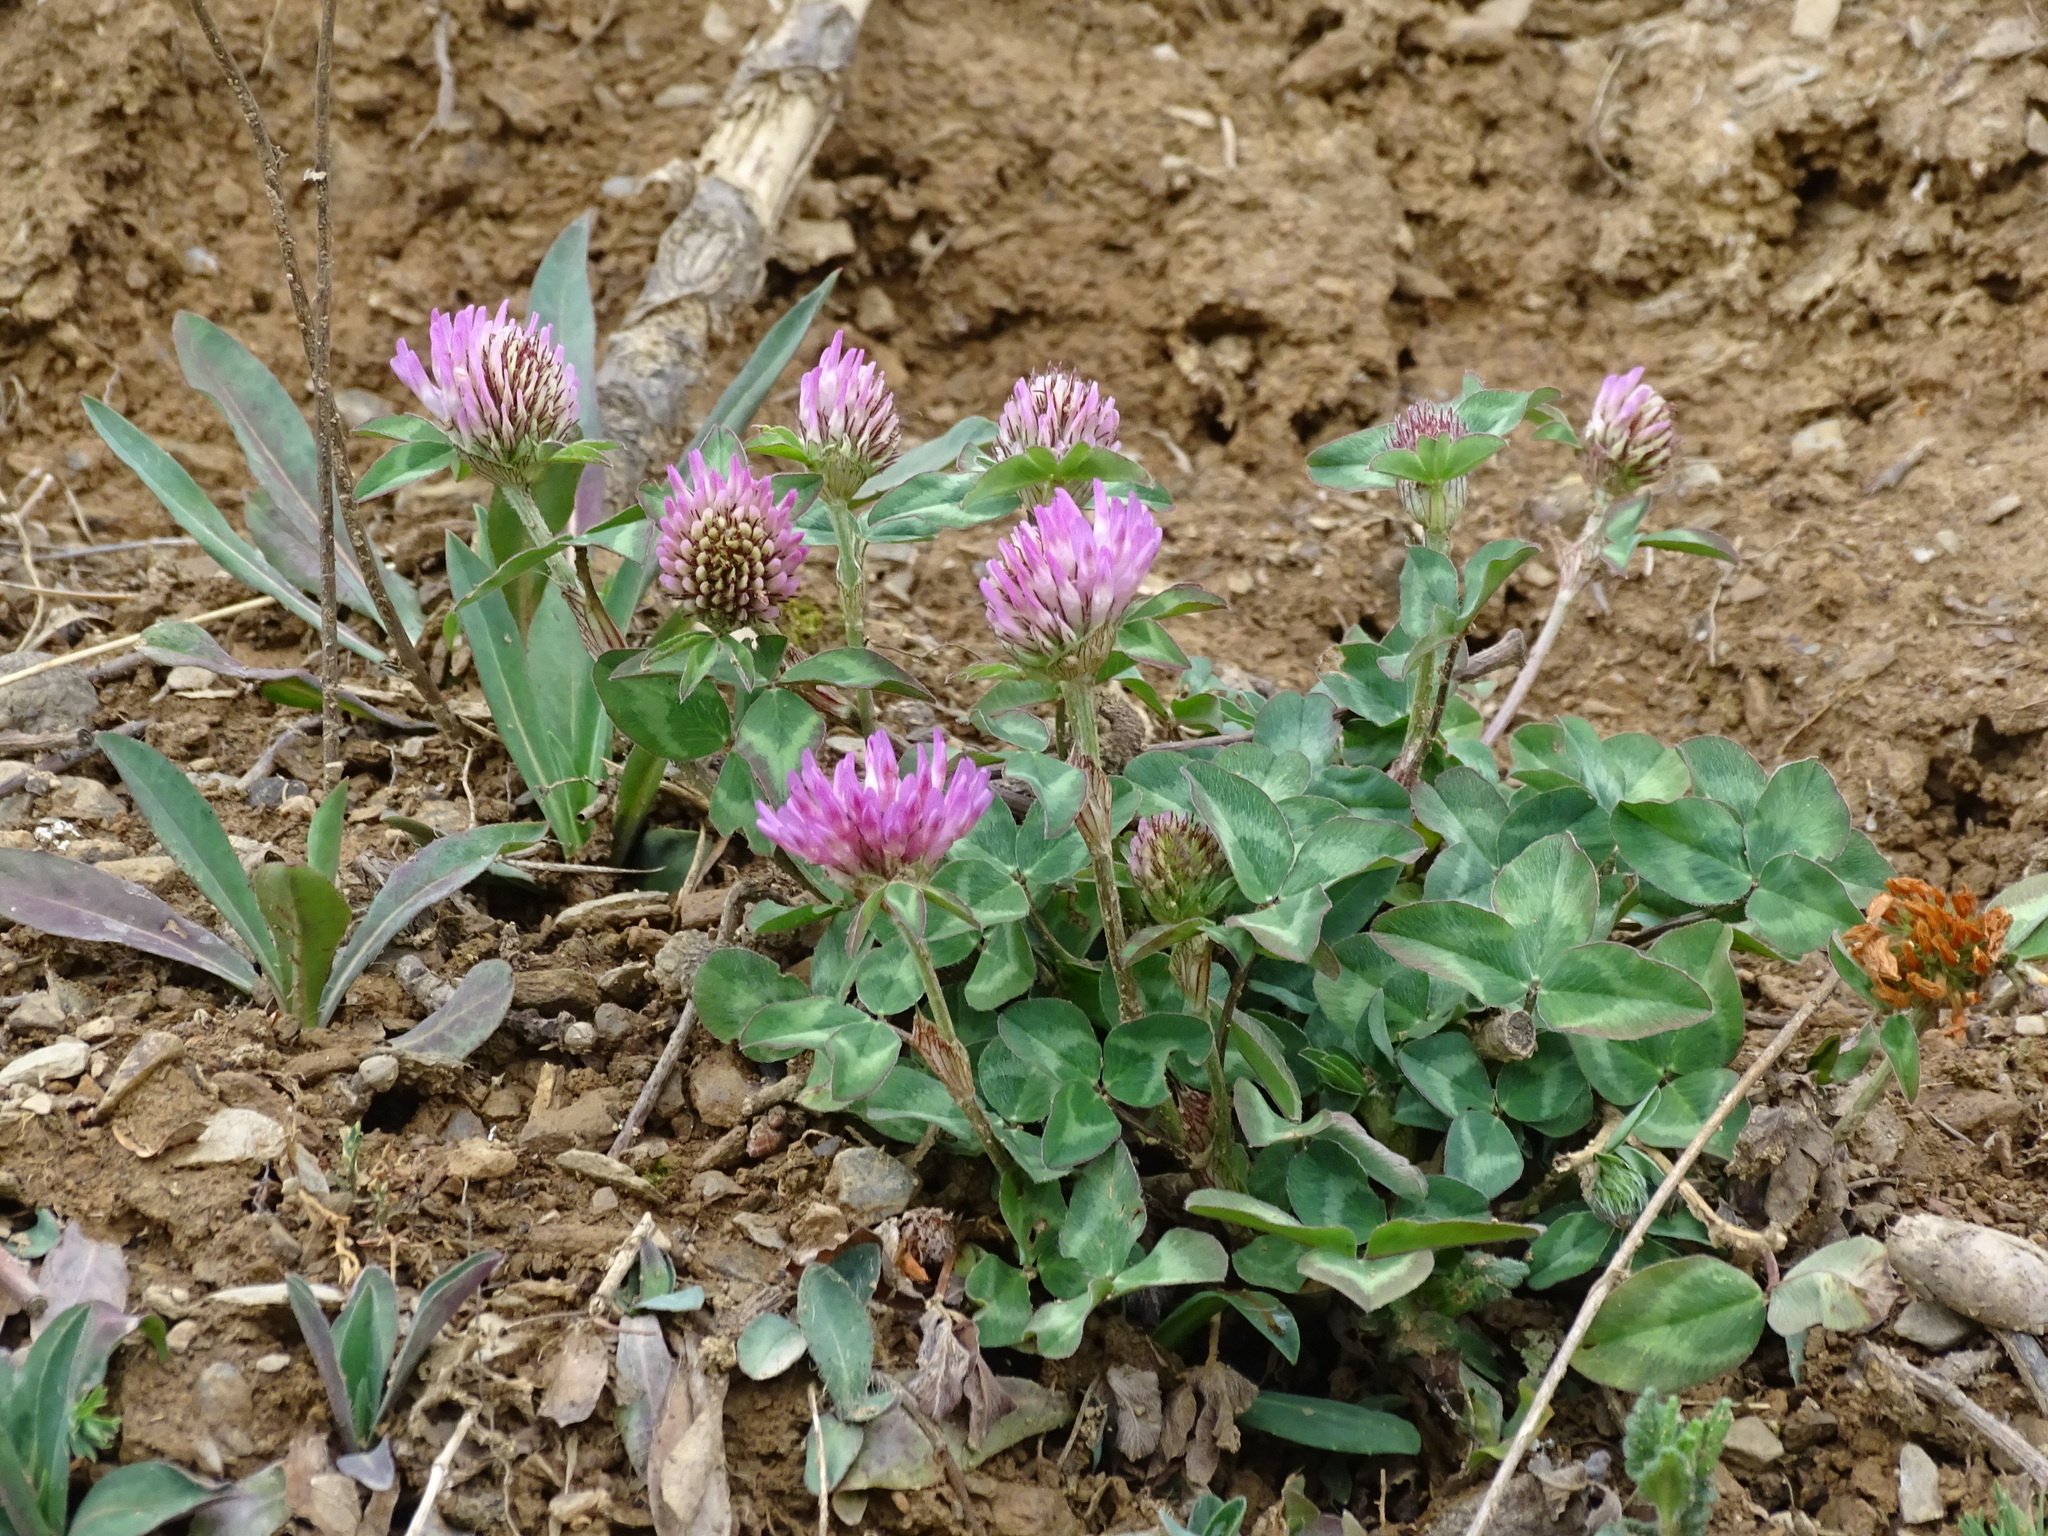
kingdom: Plantae
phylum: Tracheophyta
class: Magnoliopsida
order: Fabales
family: Fabaceae
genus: Trifolium
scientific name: Trifolium pratense
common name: Red clover
